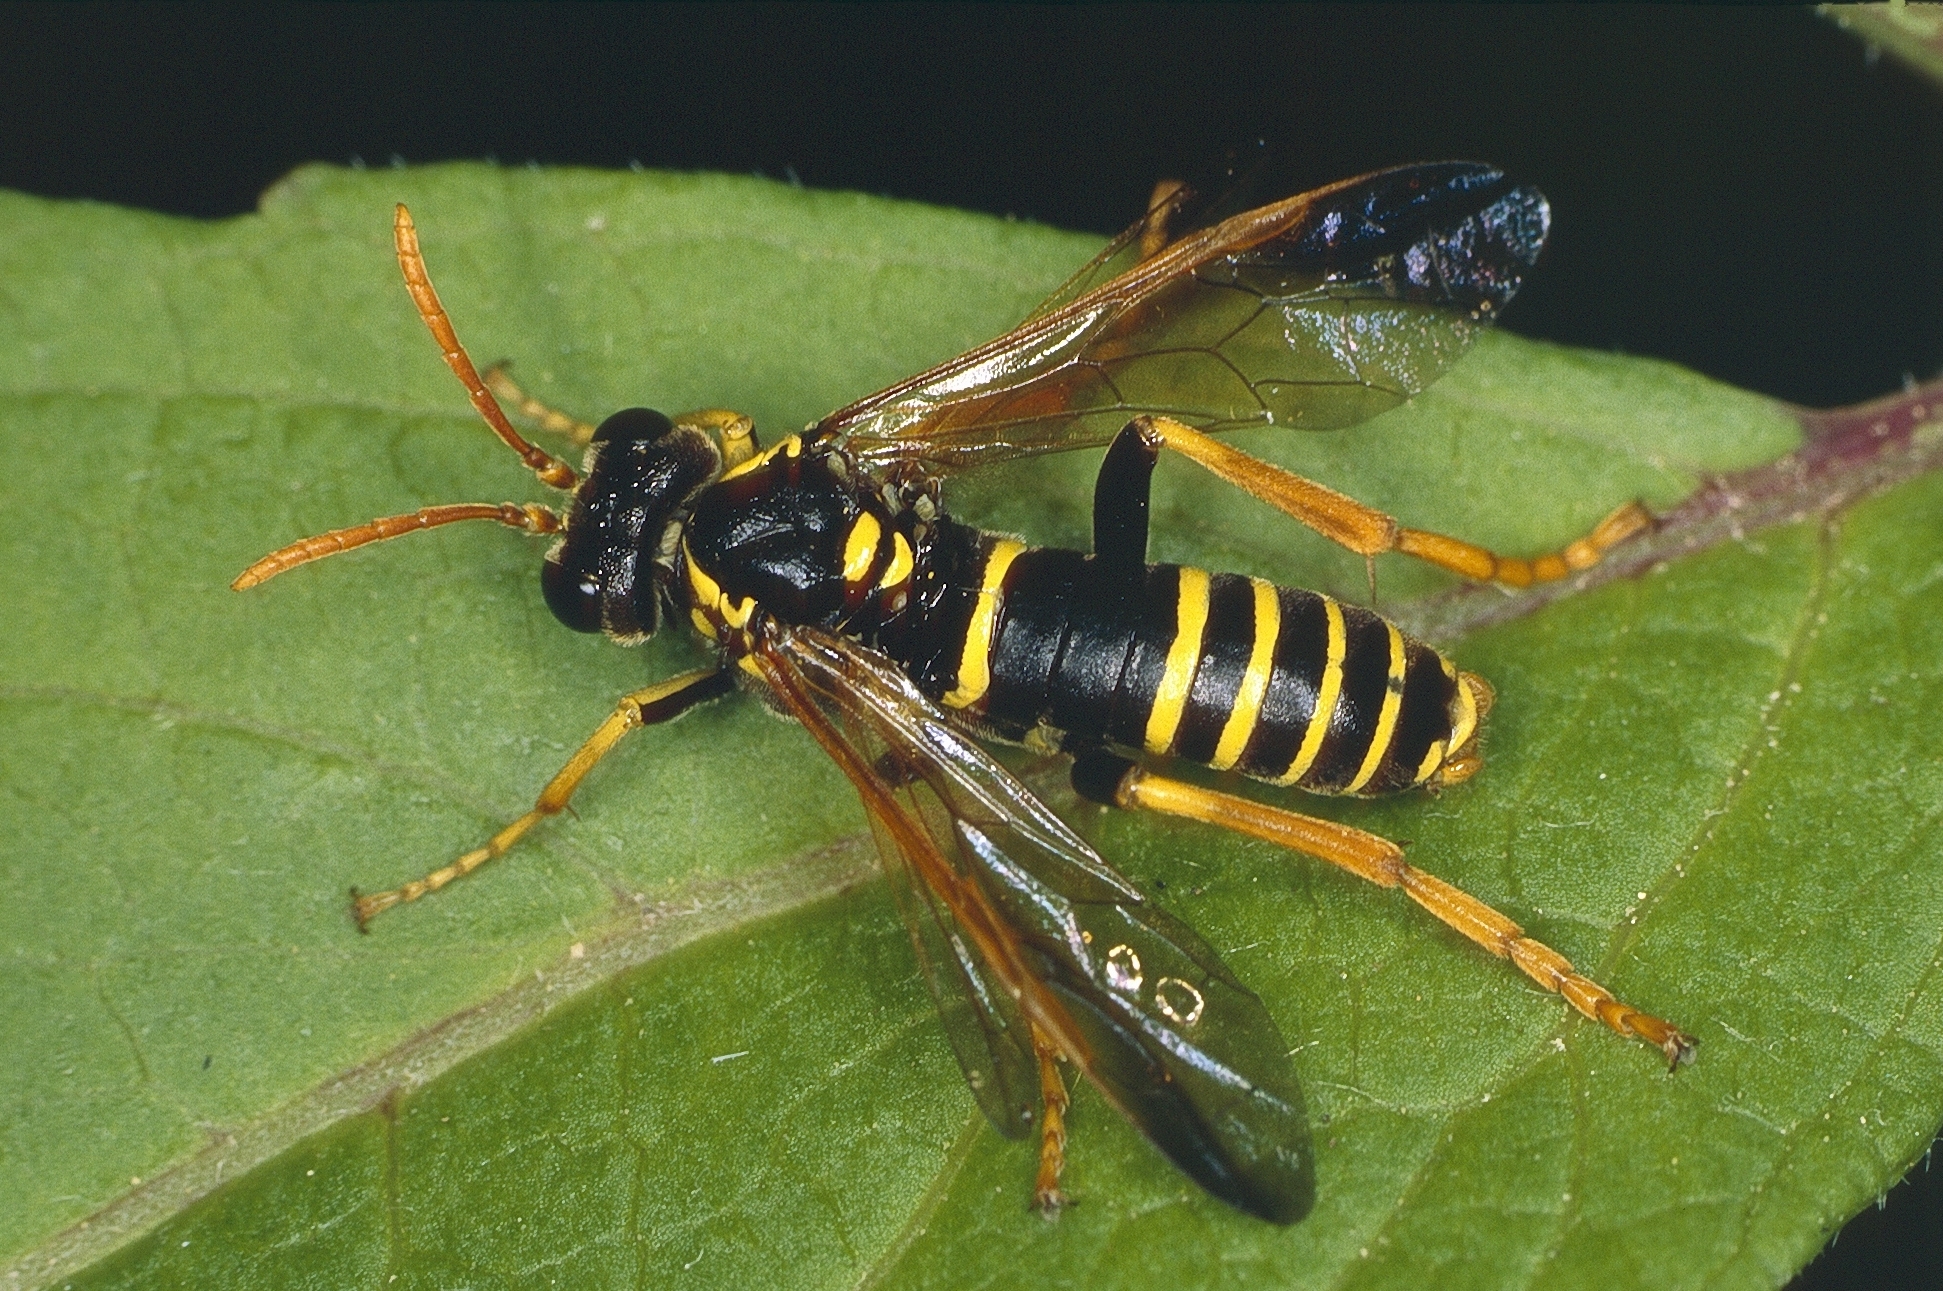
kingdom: Animalia
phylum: Arthropoda
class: Insecta
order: Hymenoptera
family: Tenthredinidae
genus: Tenthredo
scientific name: Tenthredo scrophulariae
